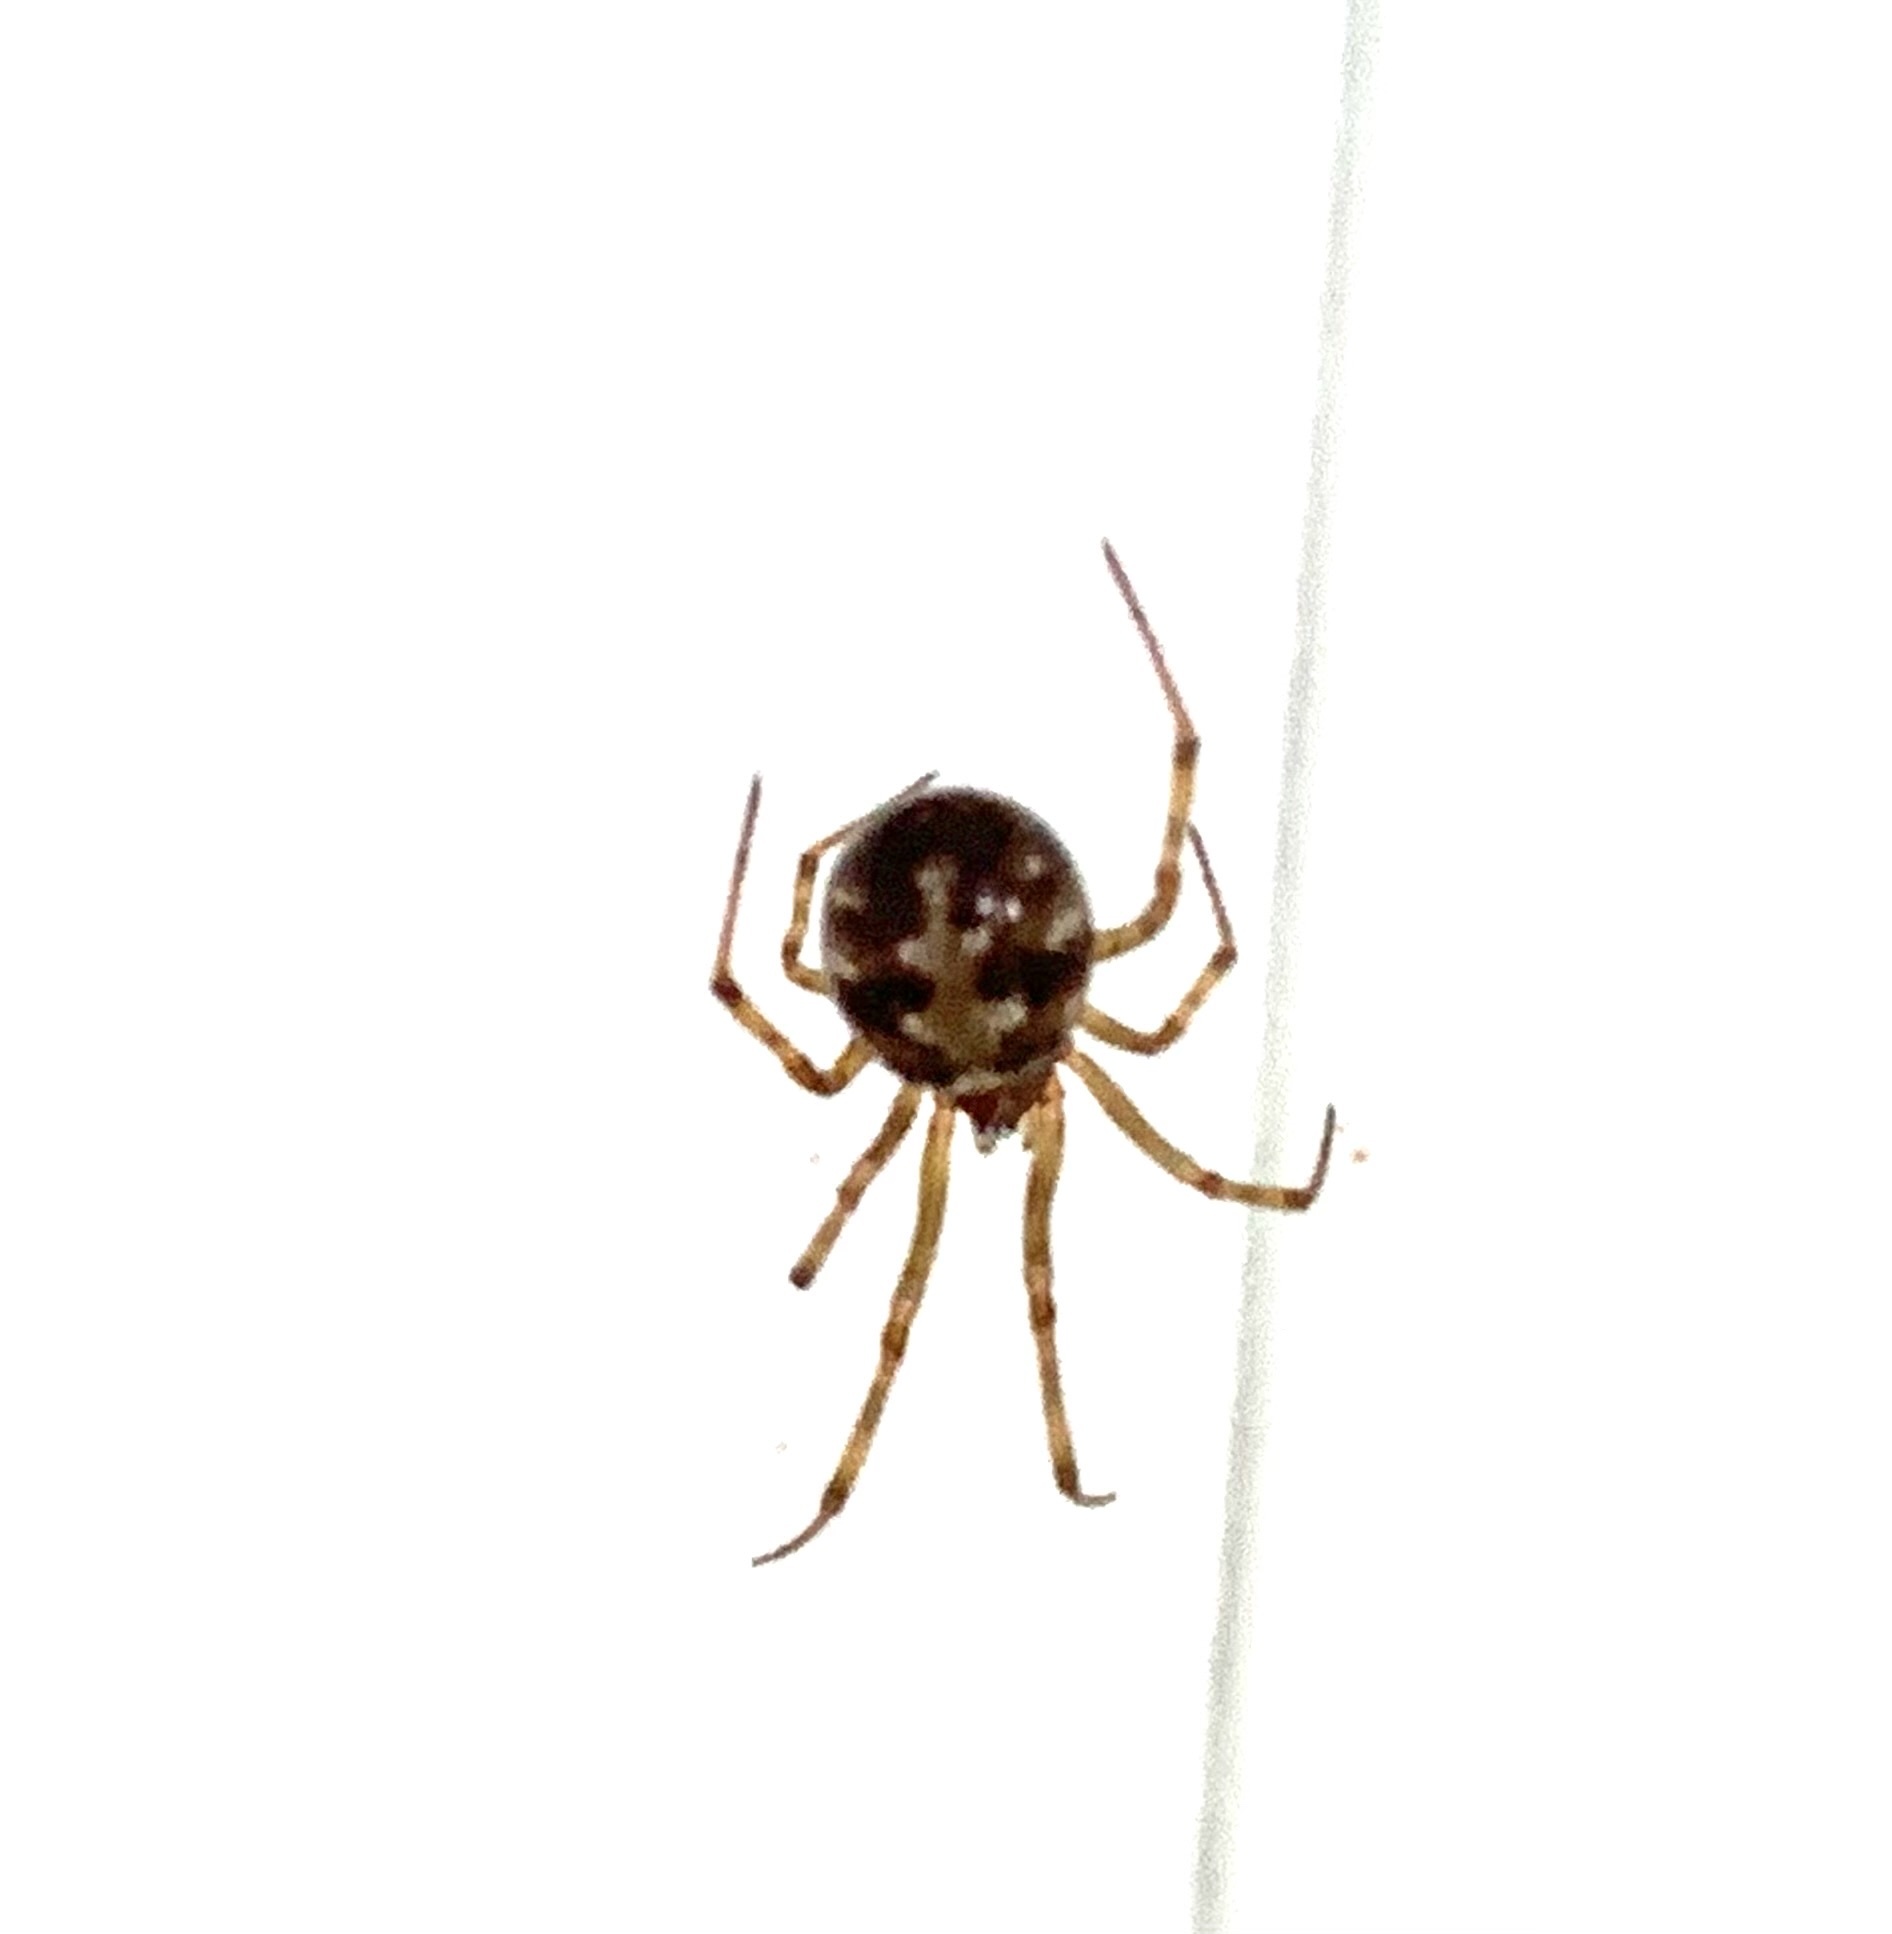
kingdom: Animalia
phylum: Arthropoda
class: Arachnida
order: Araneae
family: Theridiidae
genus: Steatoda
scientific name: Steatoda triangulosa
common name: Triangulate bud spider
